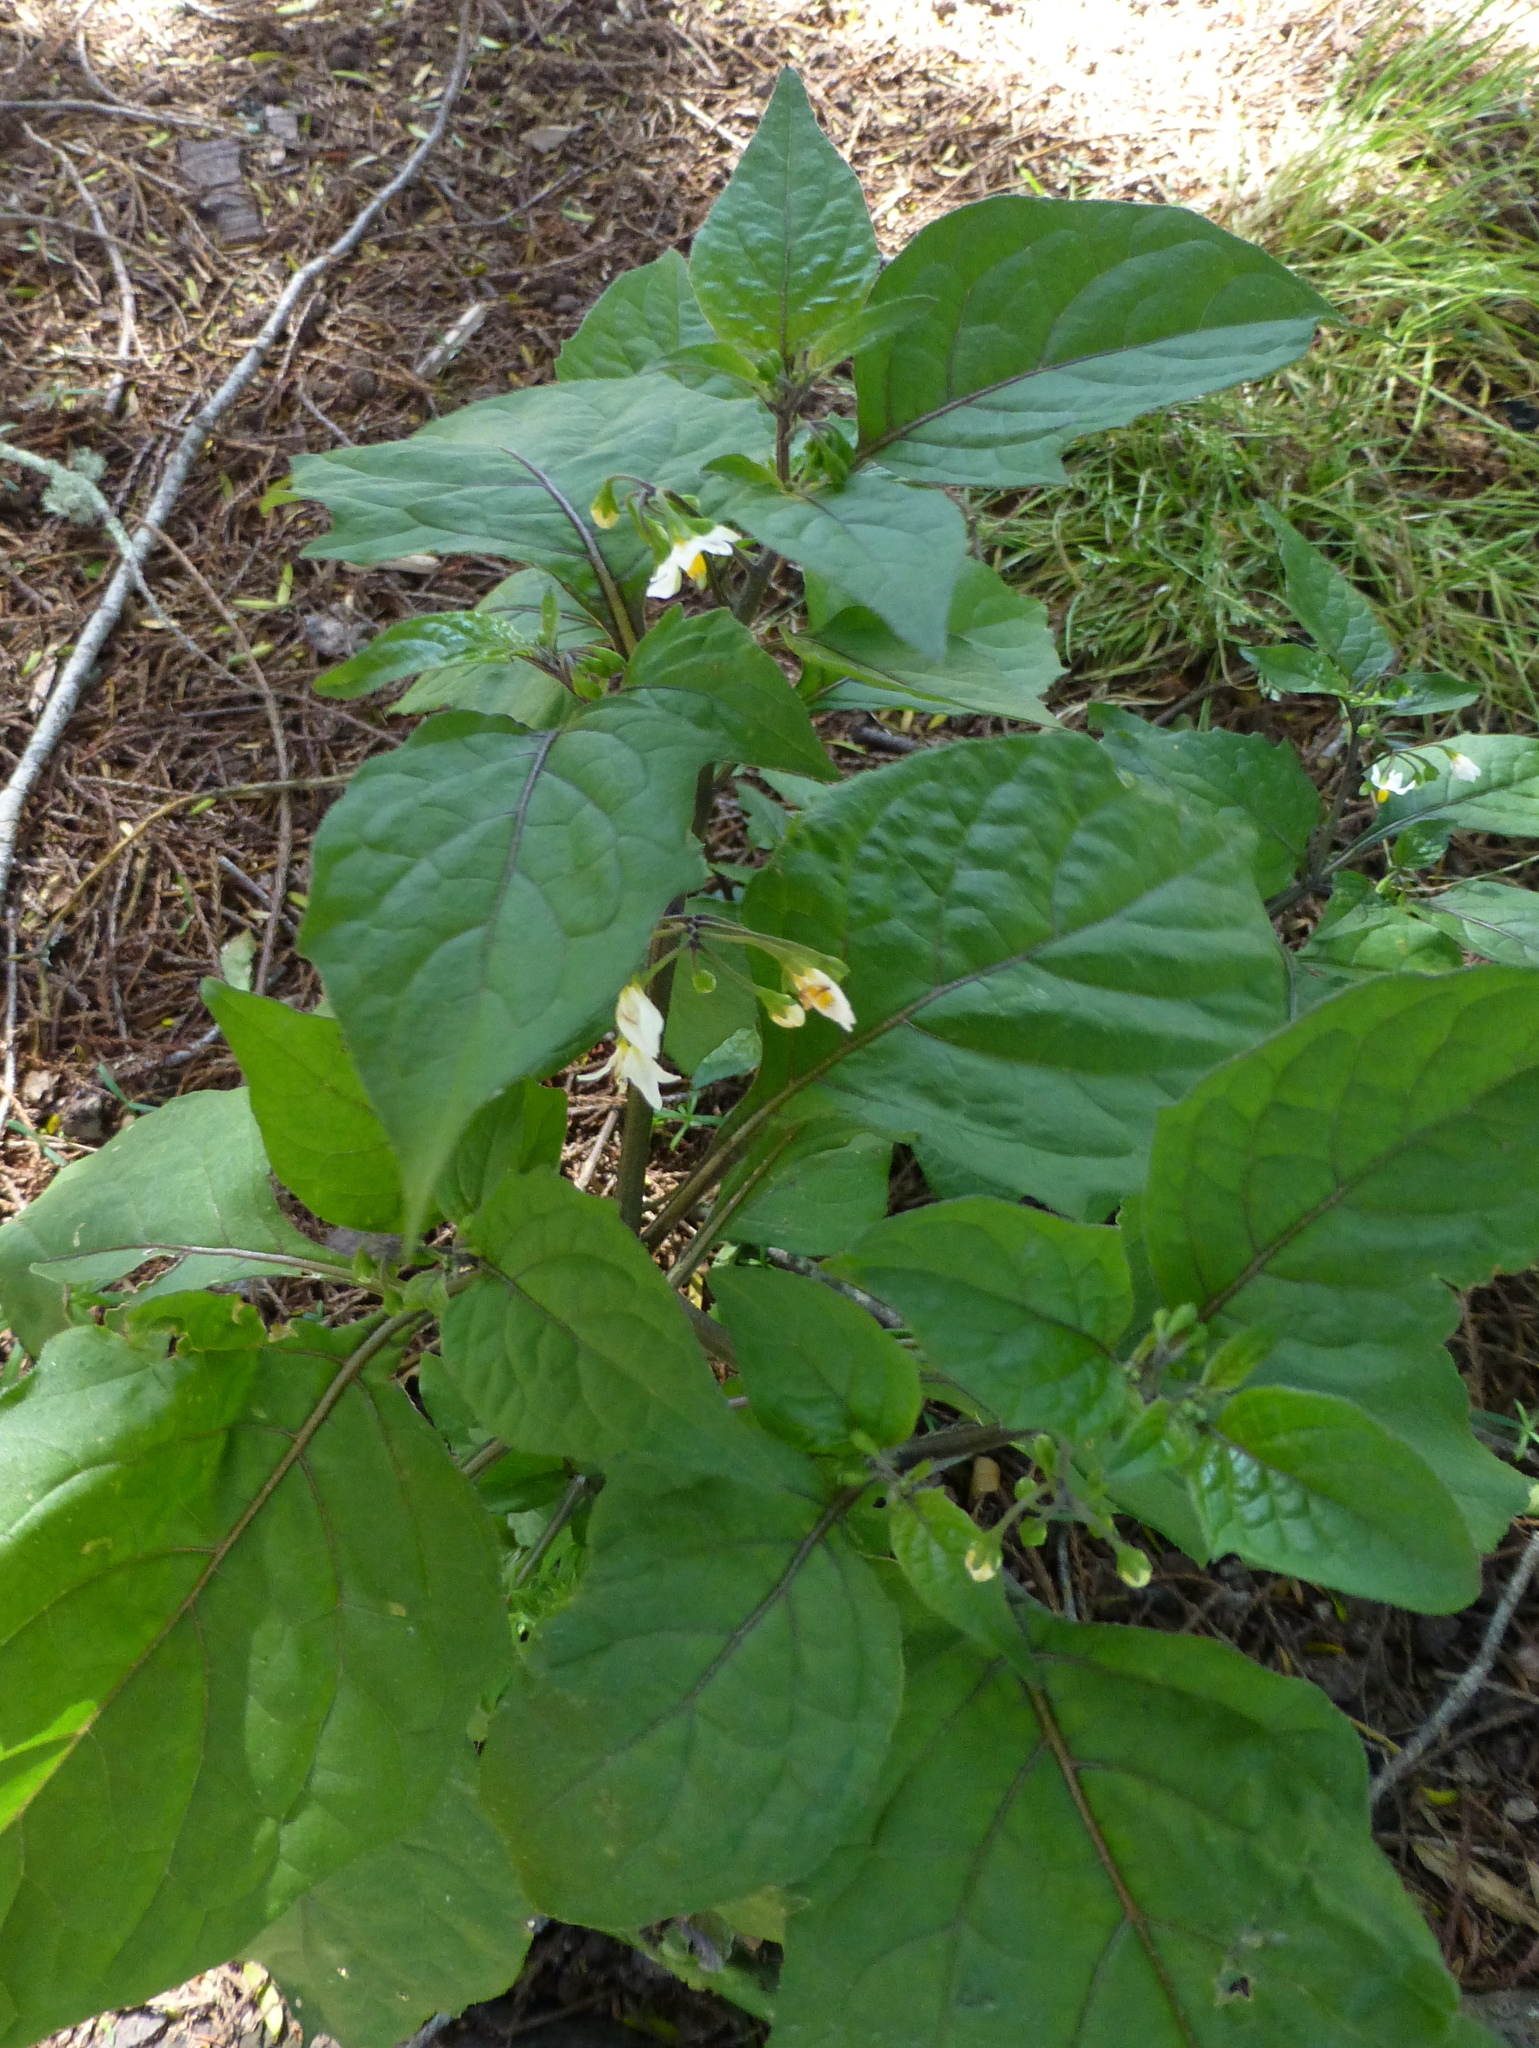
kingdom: Plantae
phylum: Tracheophyta
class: Magnoliopsida
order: Solanales
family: Solanaceae
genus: Solanum
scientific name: Solanum nigrum
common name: Black nightshade
